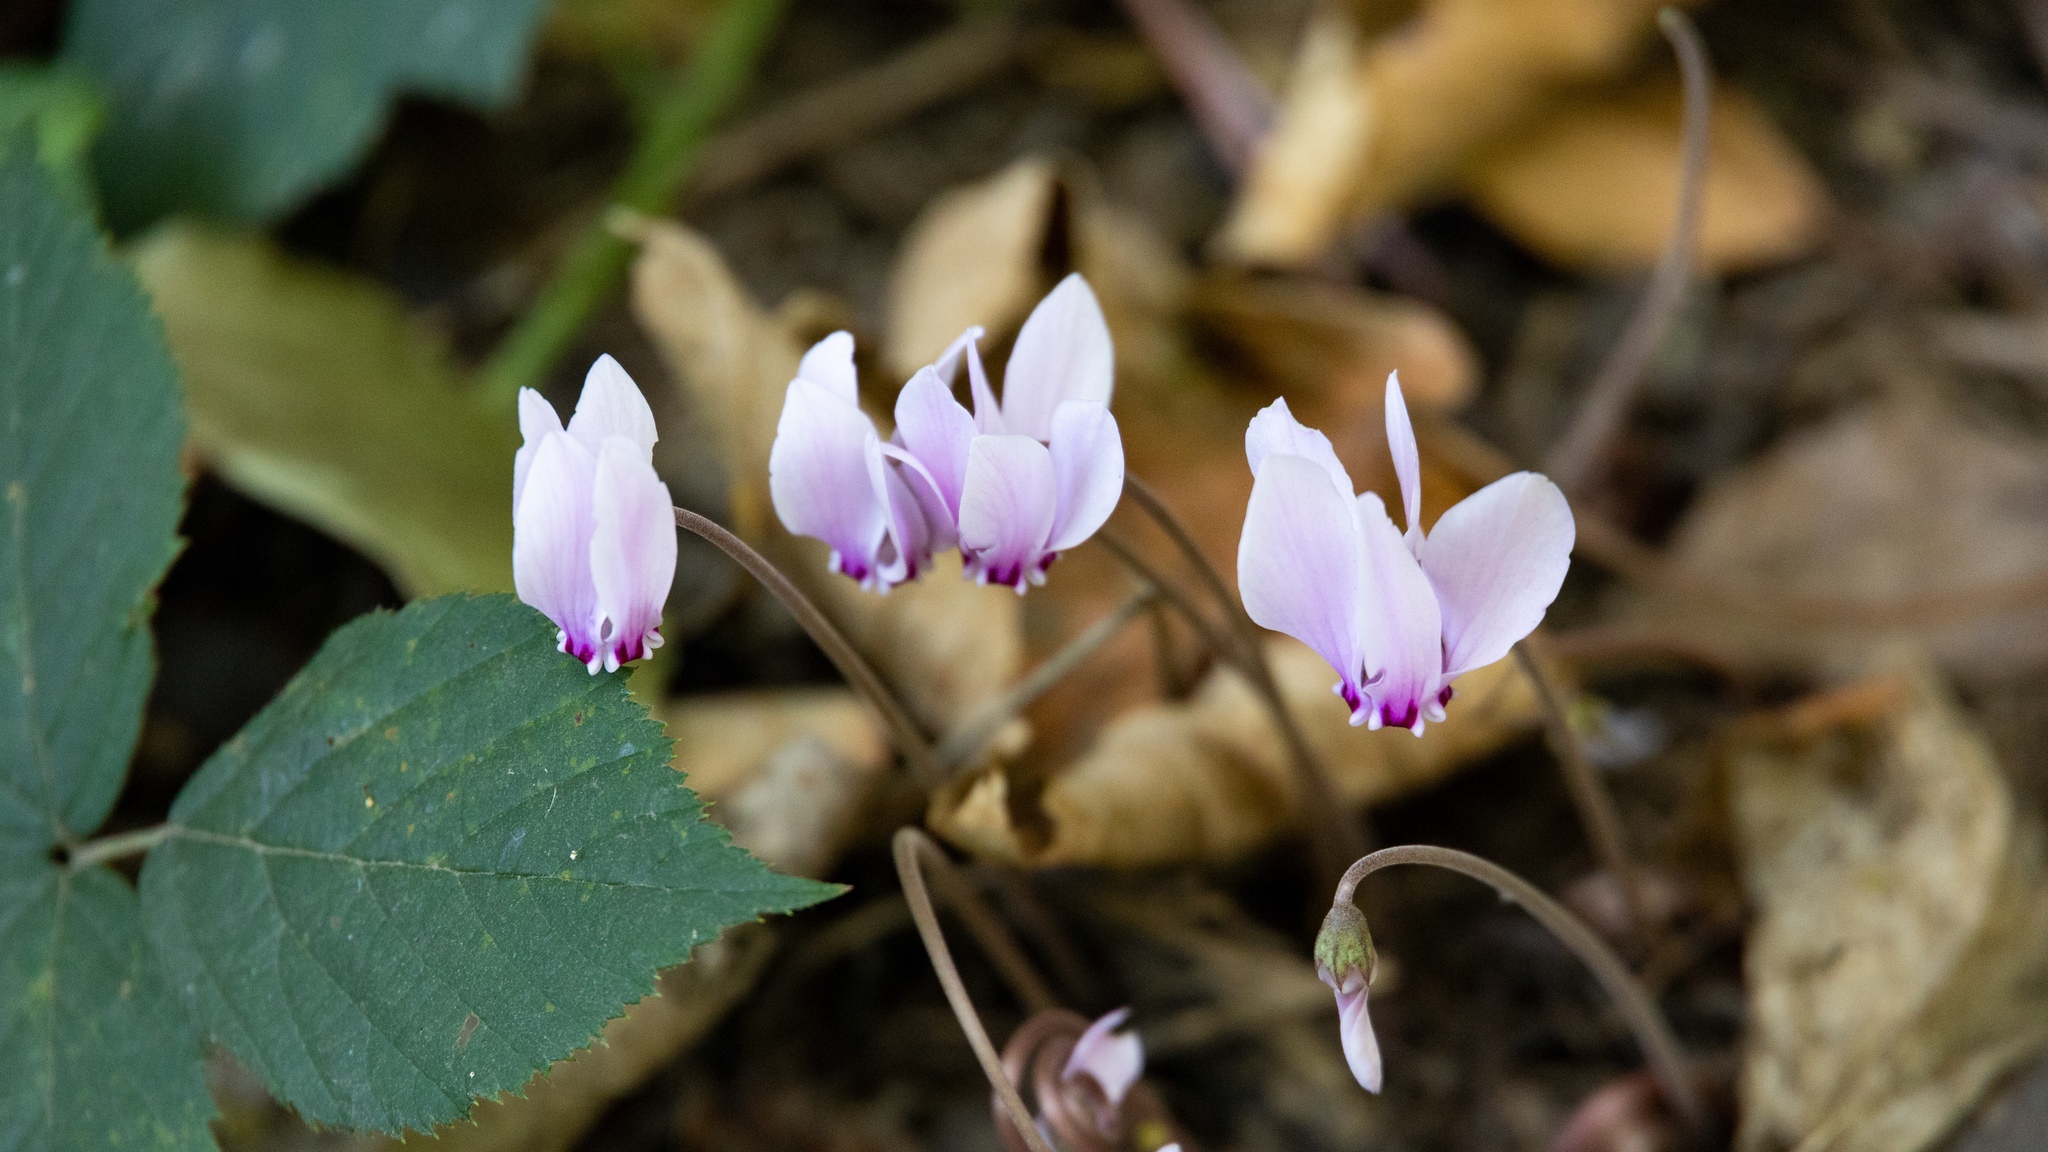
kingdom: Plantae
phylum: Tracheophyta
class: Magnoliopsida
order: Ericales
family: Primulaceae
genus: Cyclamen
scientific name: Cyclamen hederifolium
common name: Sowbread
